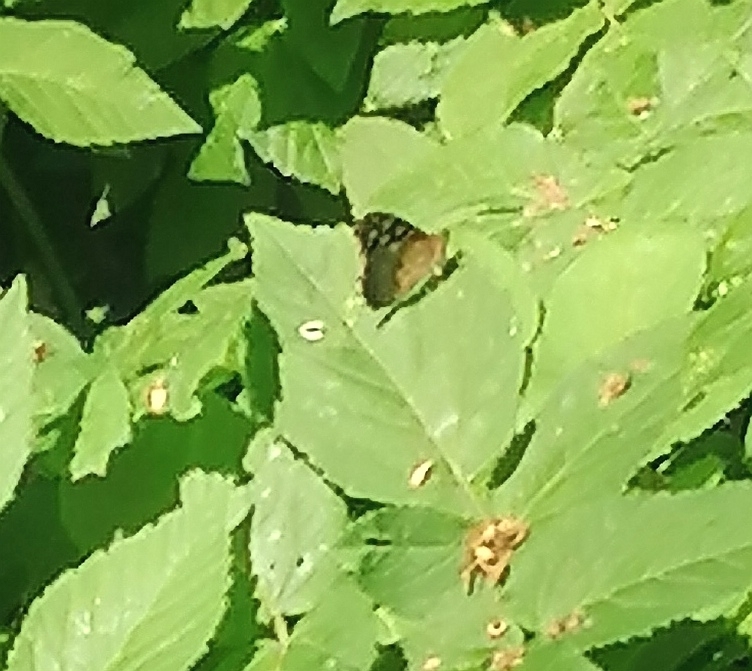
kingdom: Animalia
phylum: Arthropoda
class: Insecta
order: Lepidoptera
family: Nymphalidae
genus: Pararge
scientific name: Pararge aegeria
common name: Speckled wood
